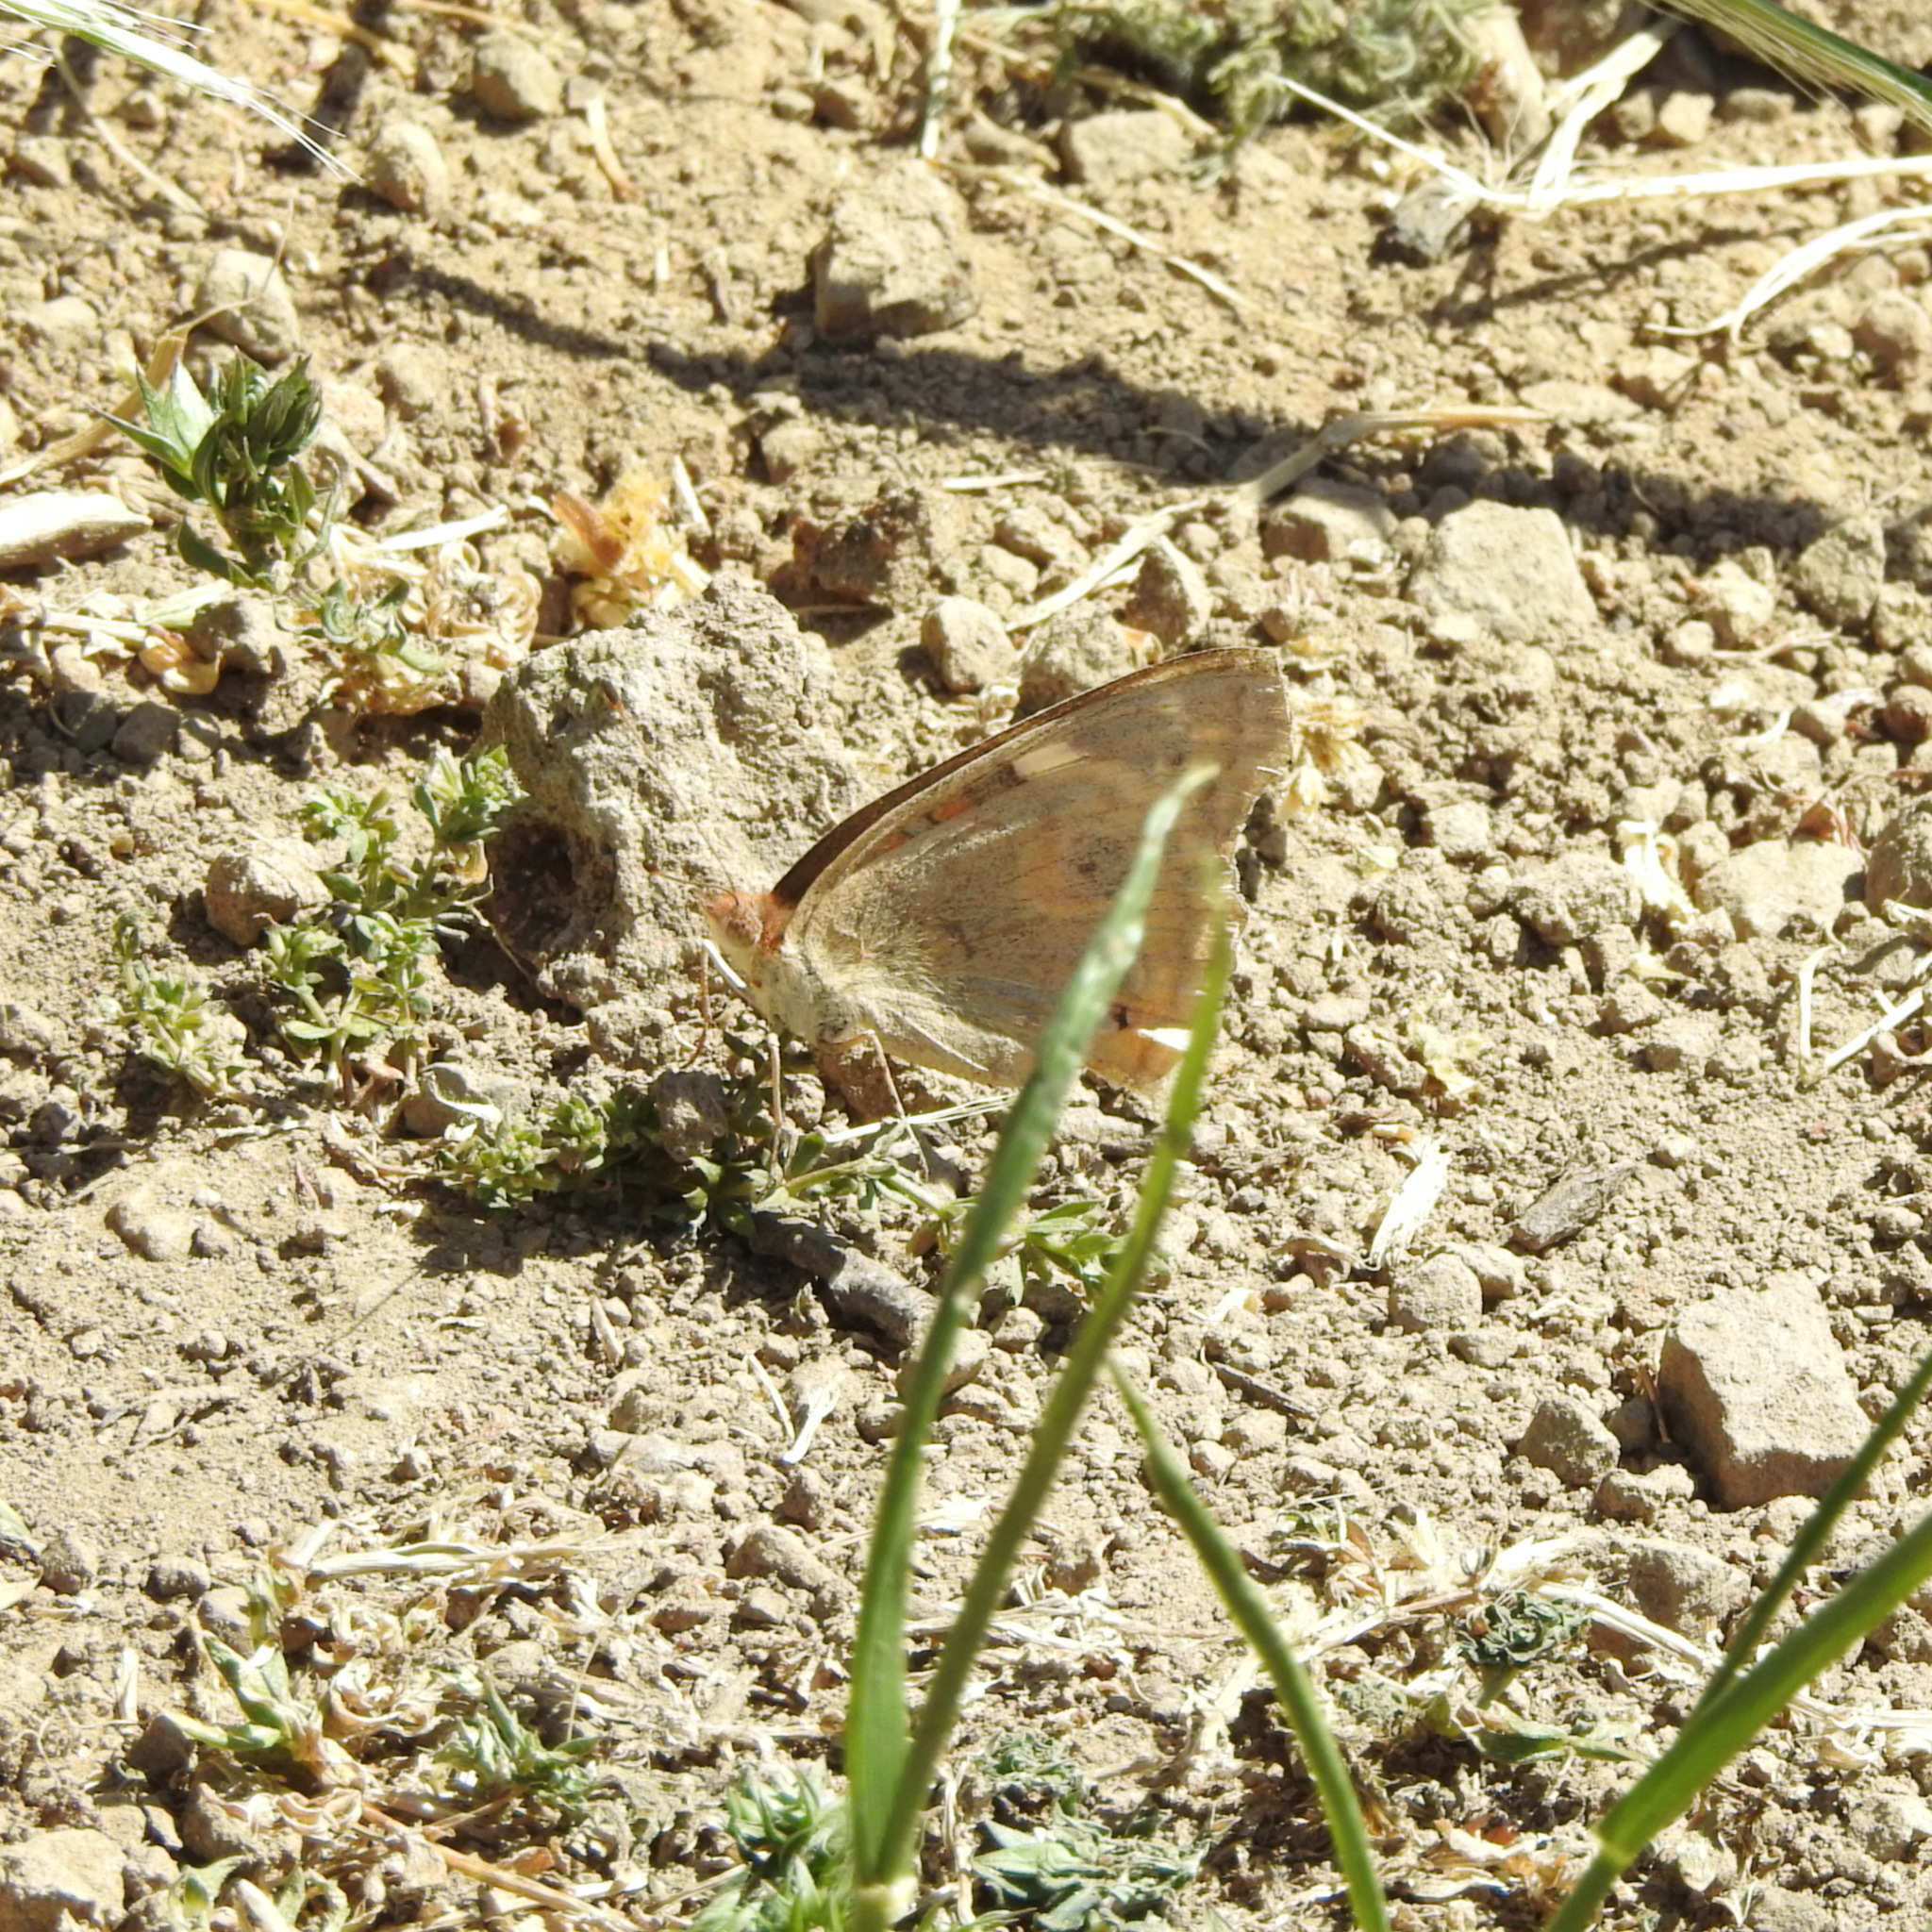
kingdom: Animalia
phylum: Arthropoda
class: Insecta
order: Lepidoptera
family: Nymphalidae
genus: Junonia
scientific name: Junonia grisea
